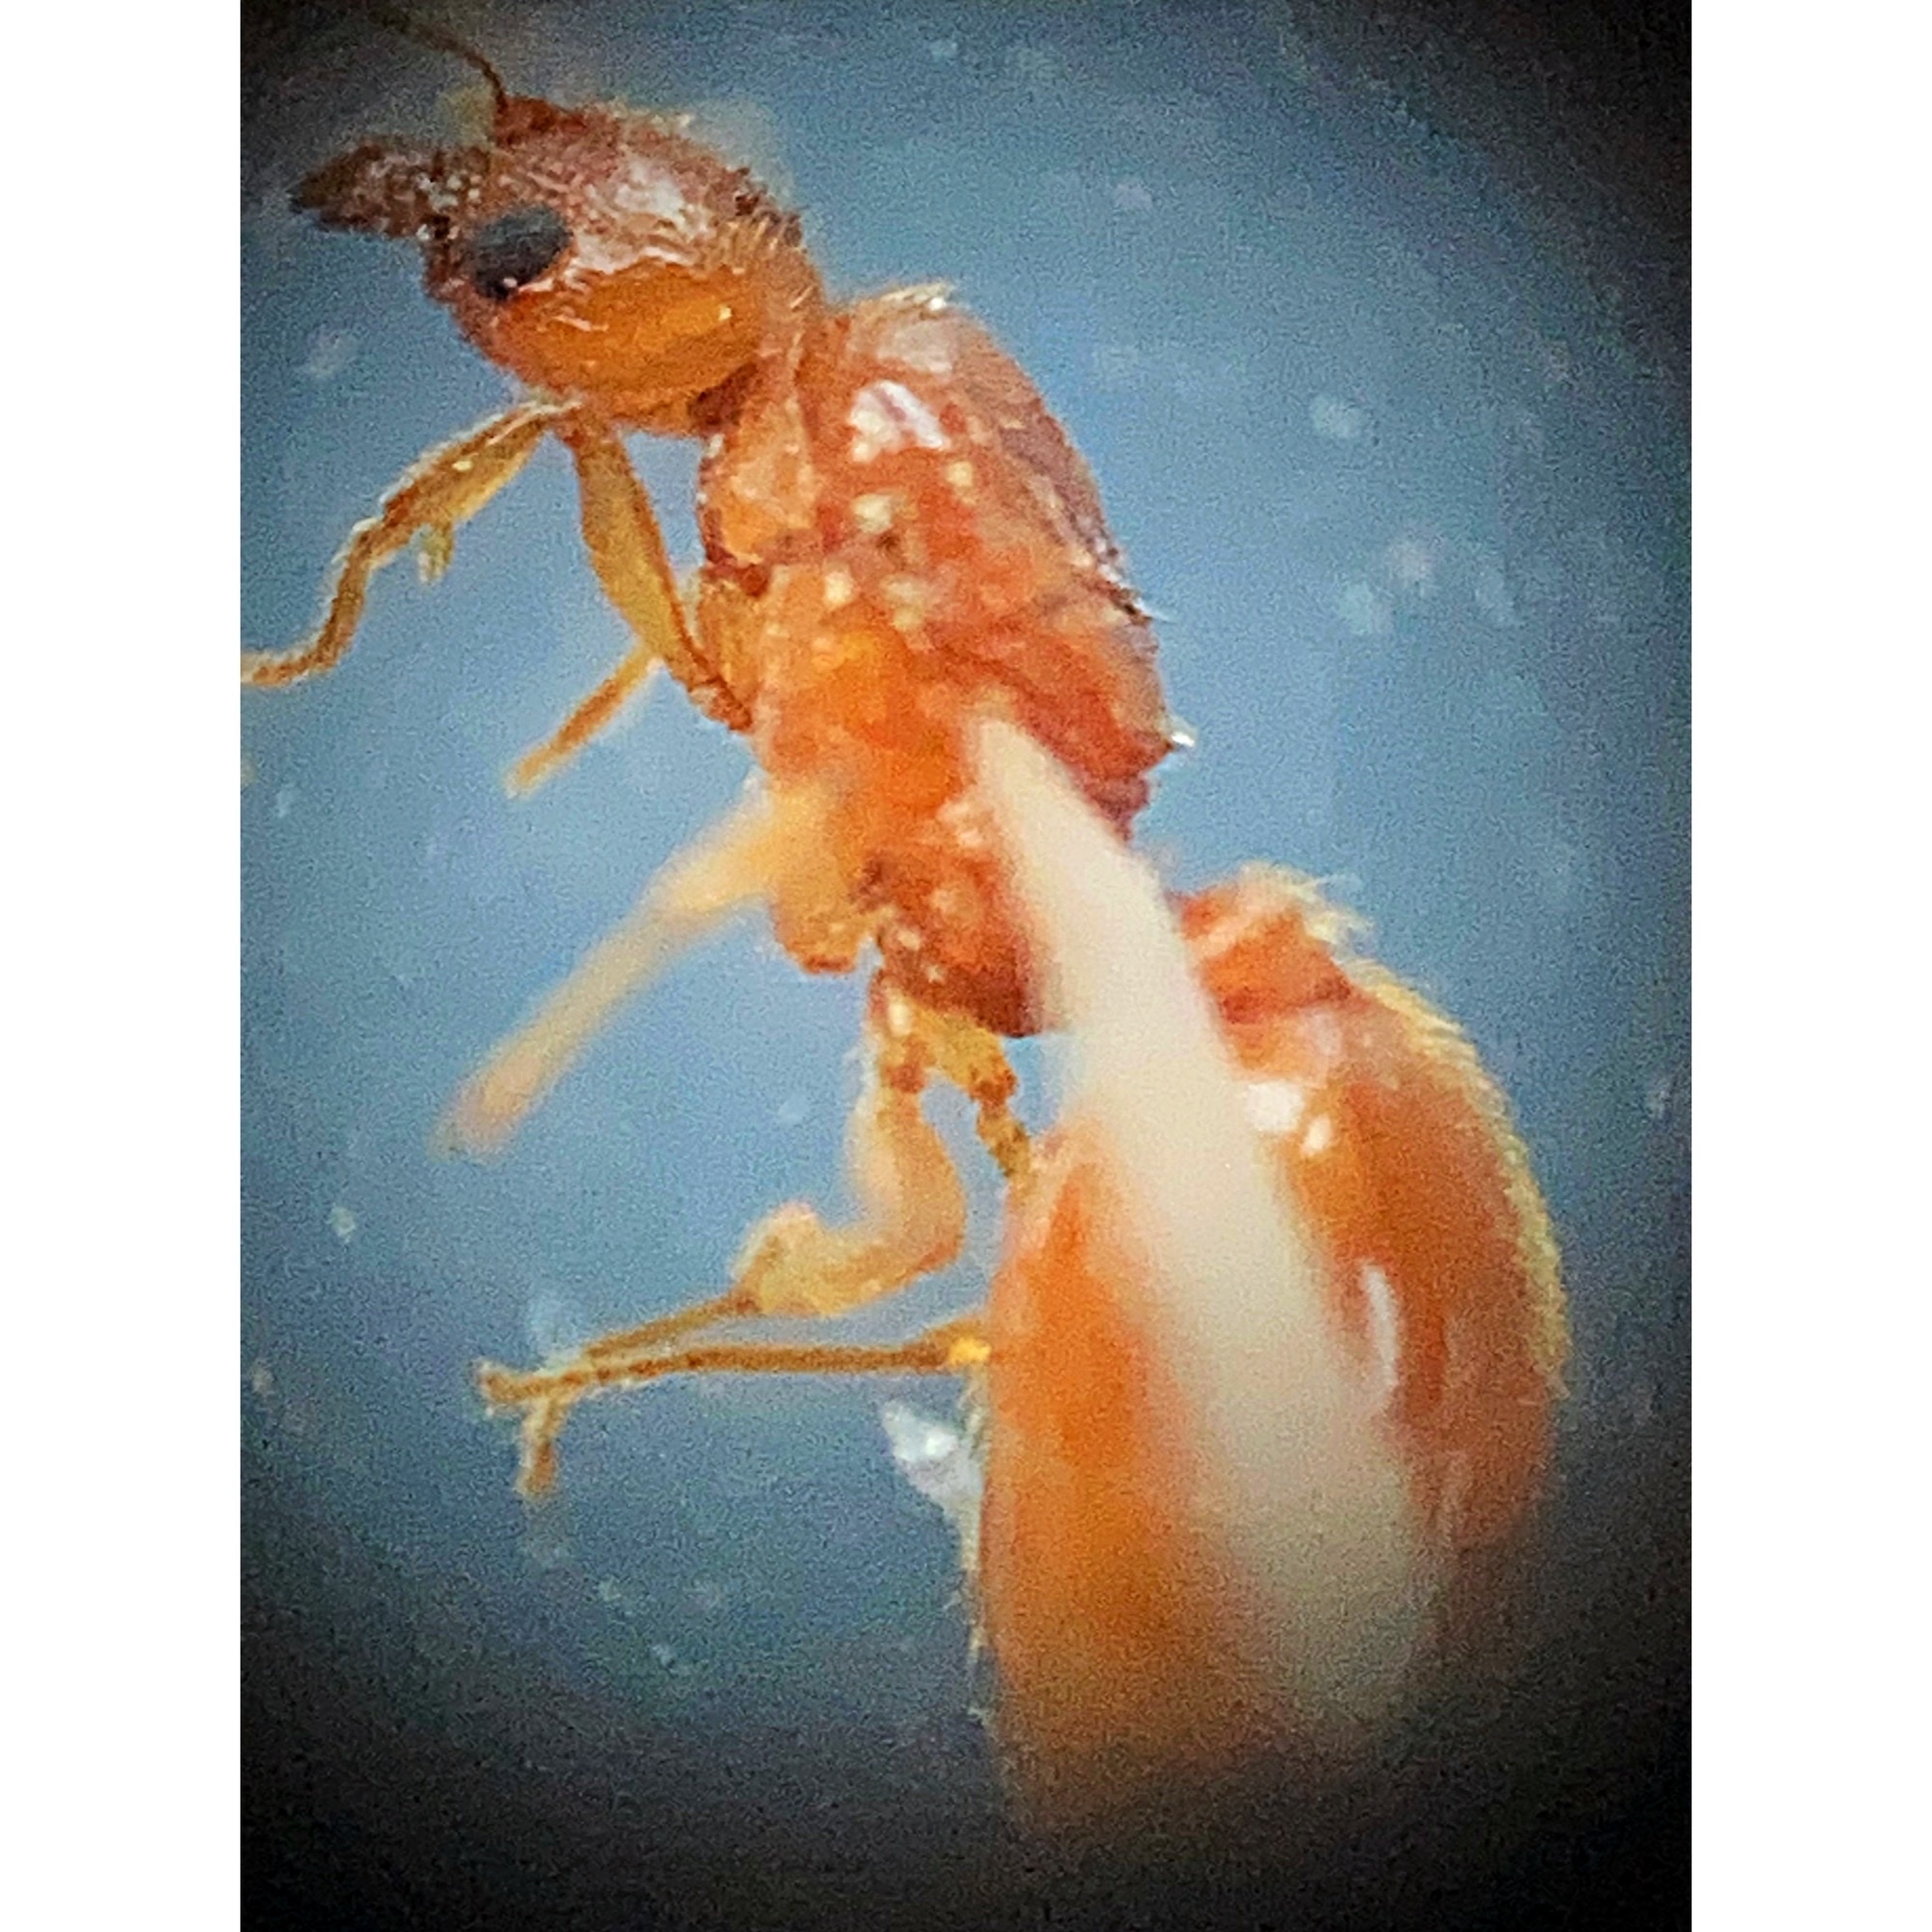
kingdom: Animalia
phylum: Arthropoda
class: Insecta
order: Hymenoptera
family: Formicidae
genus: Pheidole
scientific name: Pheidole tysoni
